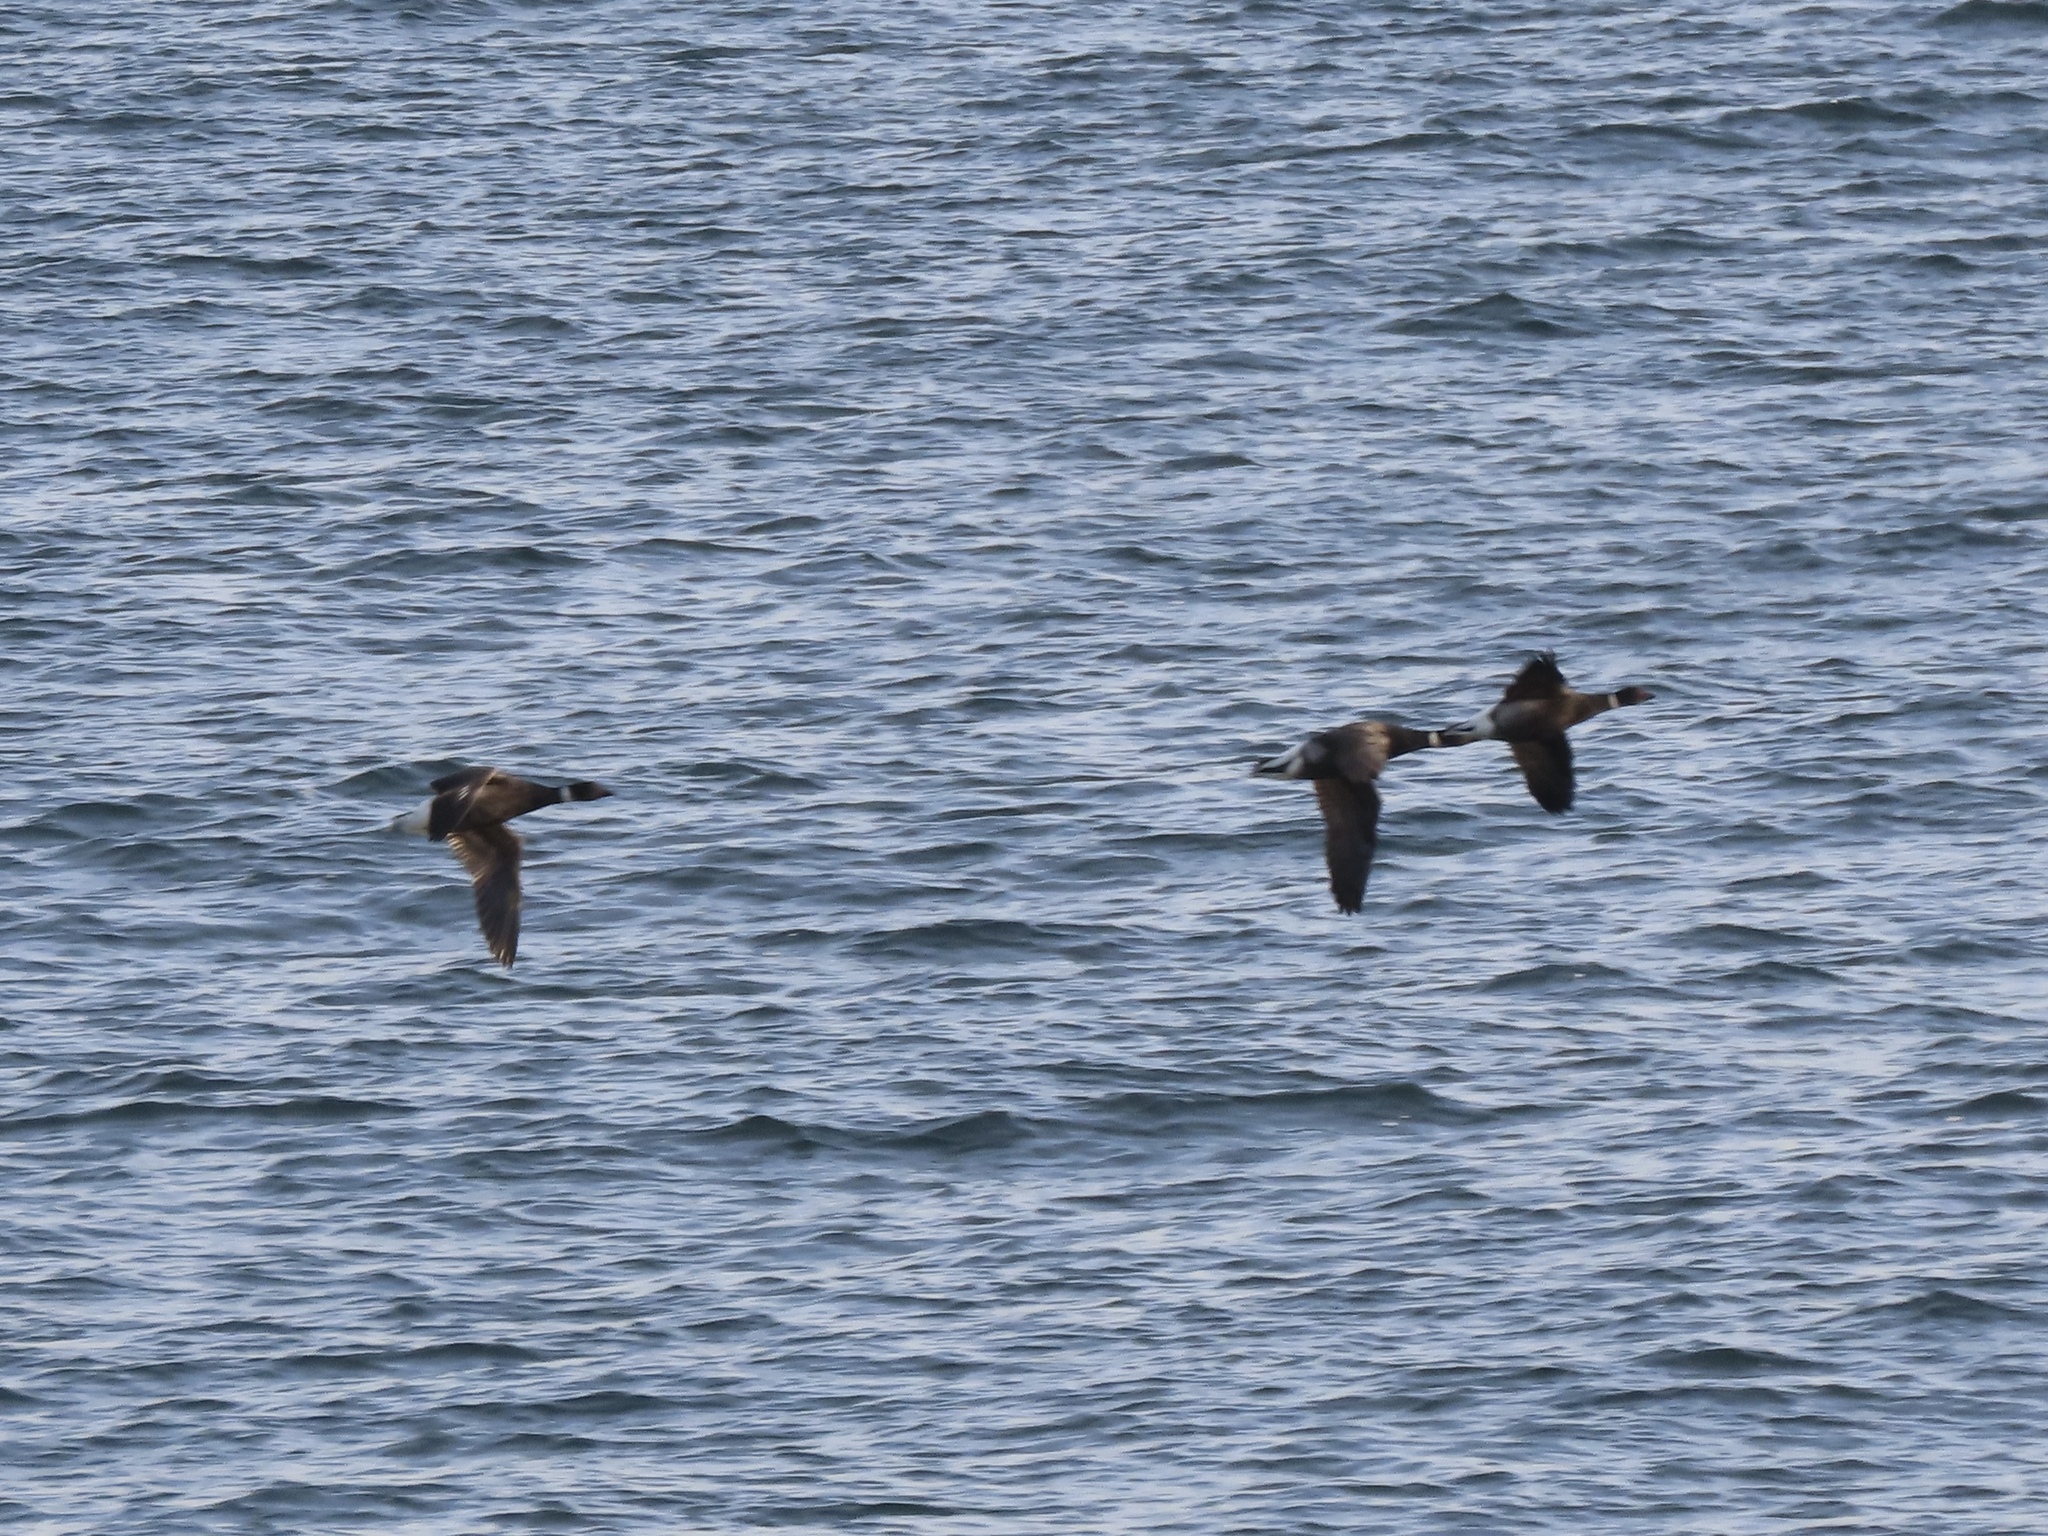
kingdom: Animalia
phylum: Chordata
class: Aves
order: Anseriformes
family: Anatidae
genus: Branta
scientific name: Branta bernicla
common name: Brant goose
